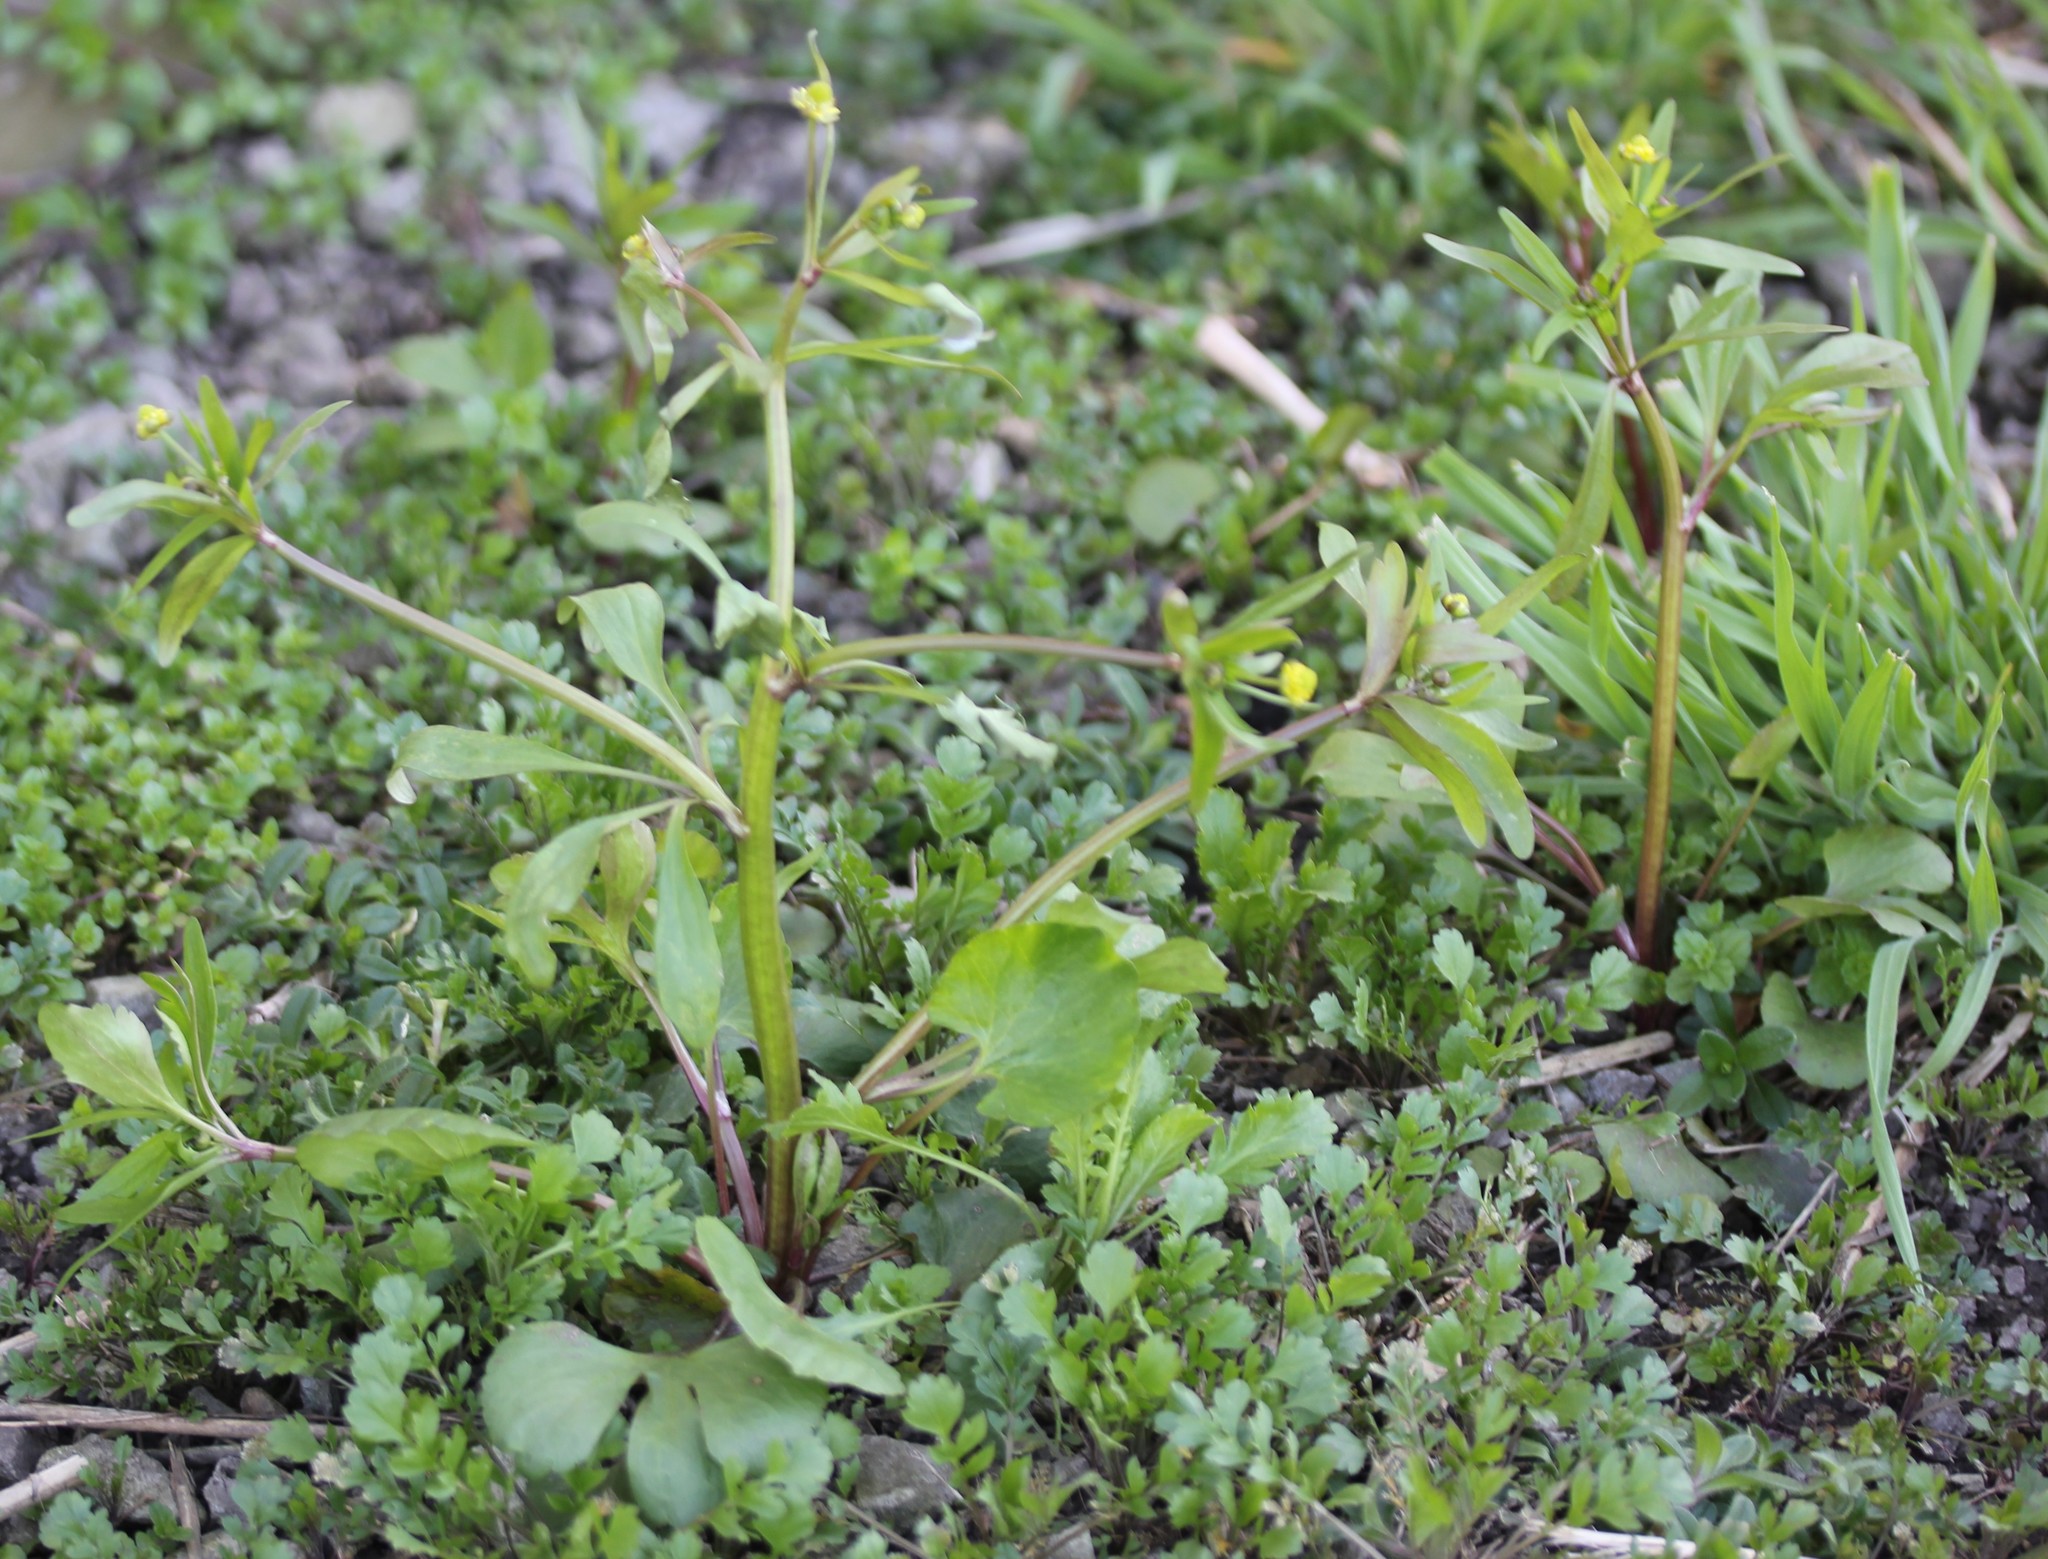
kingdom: Plantae
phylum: Tracheophyta
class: Magnoliopsida
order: Ranunculales
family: Ranunculaceae
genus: Ranunculus
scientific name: Ranunculus abortivus
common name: Early wood buttercup
